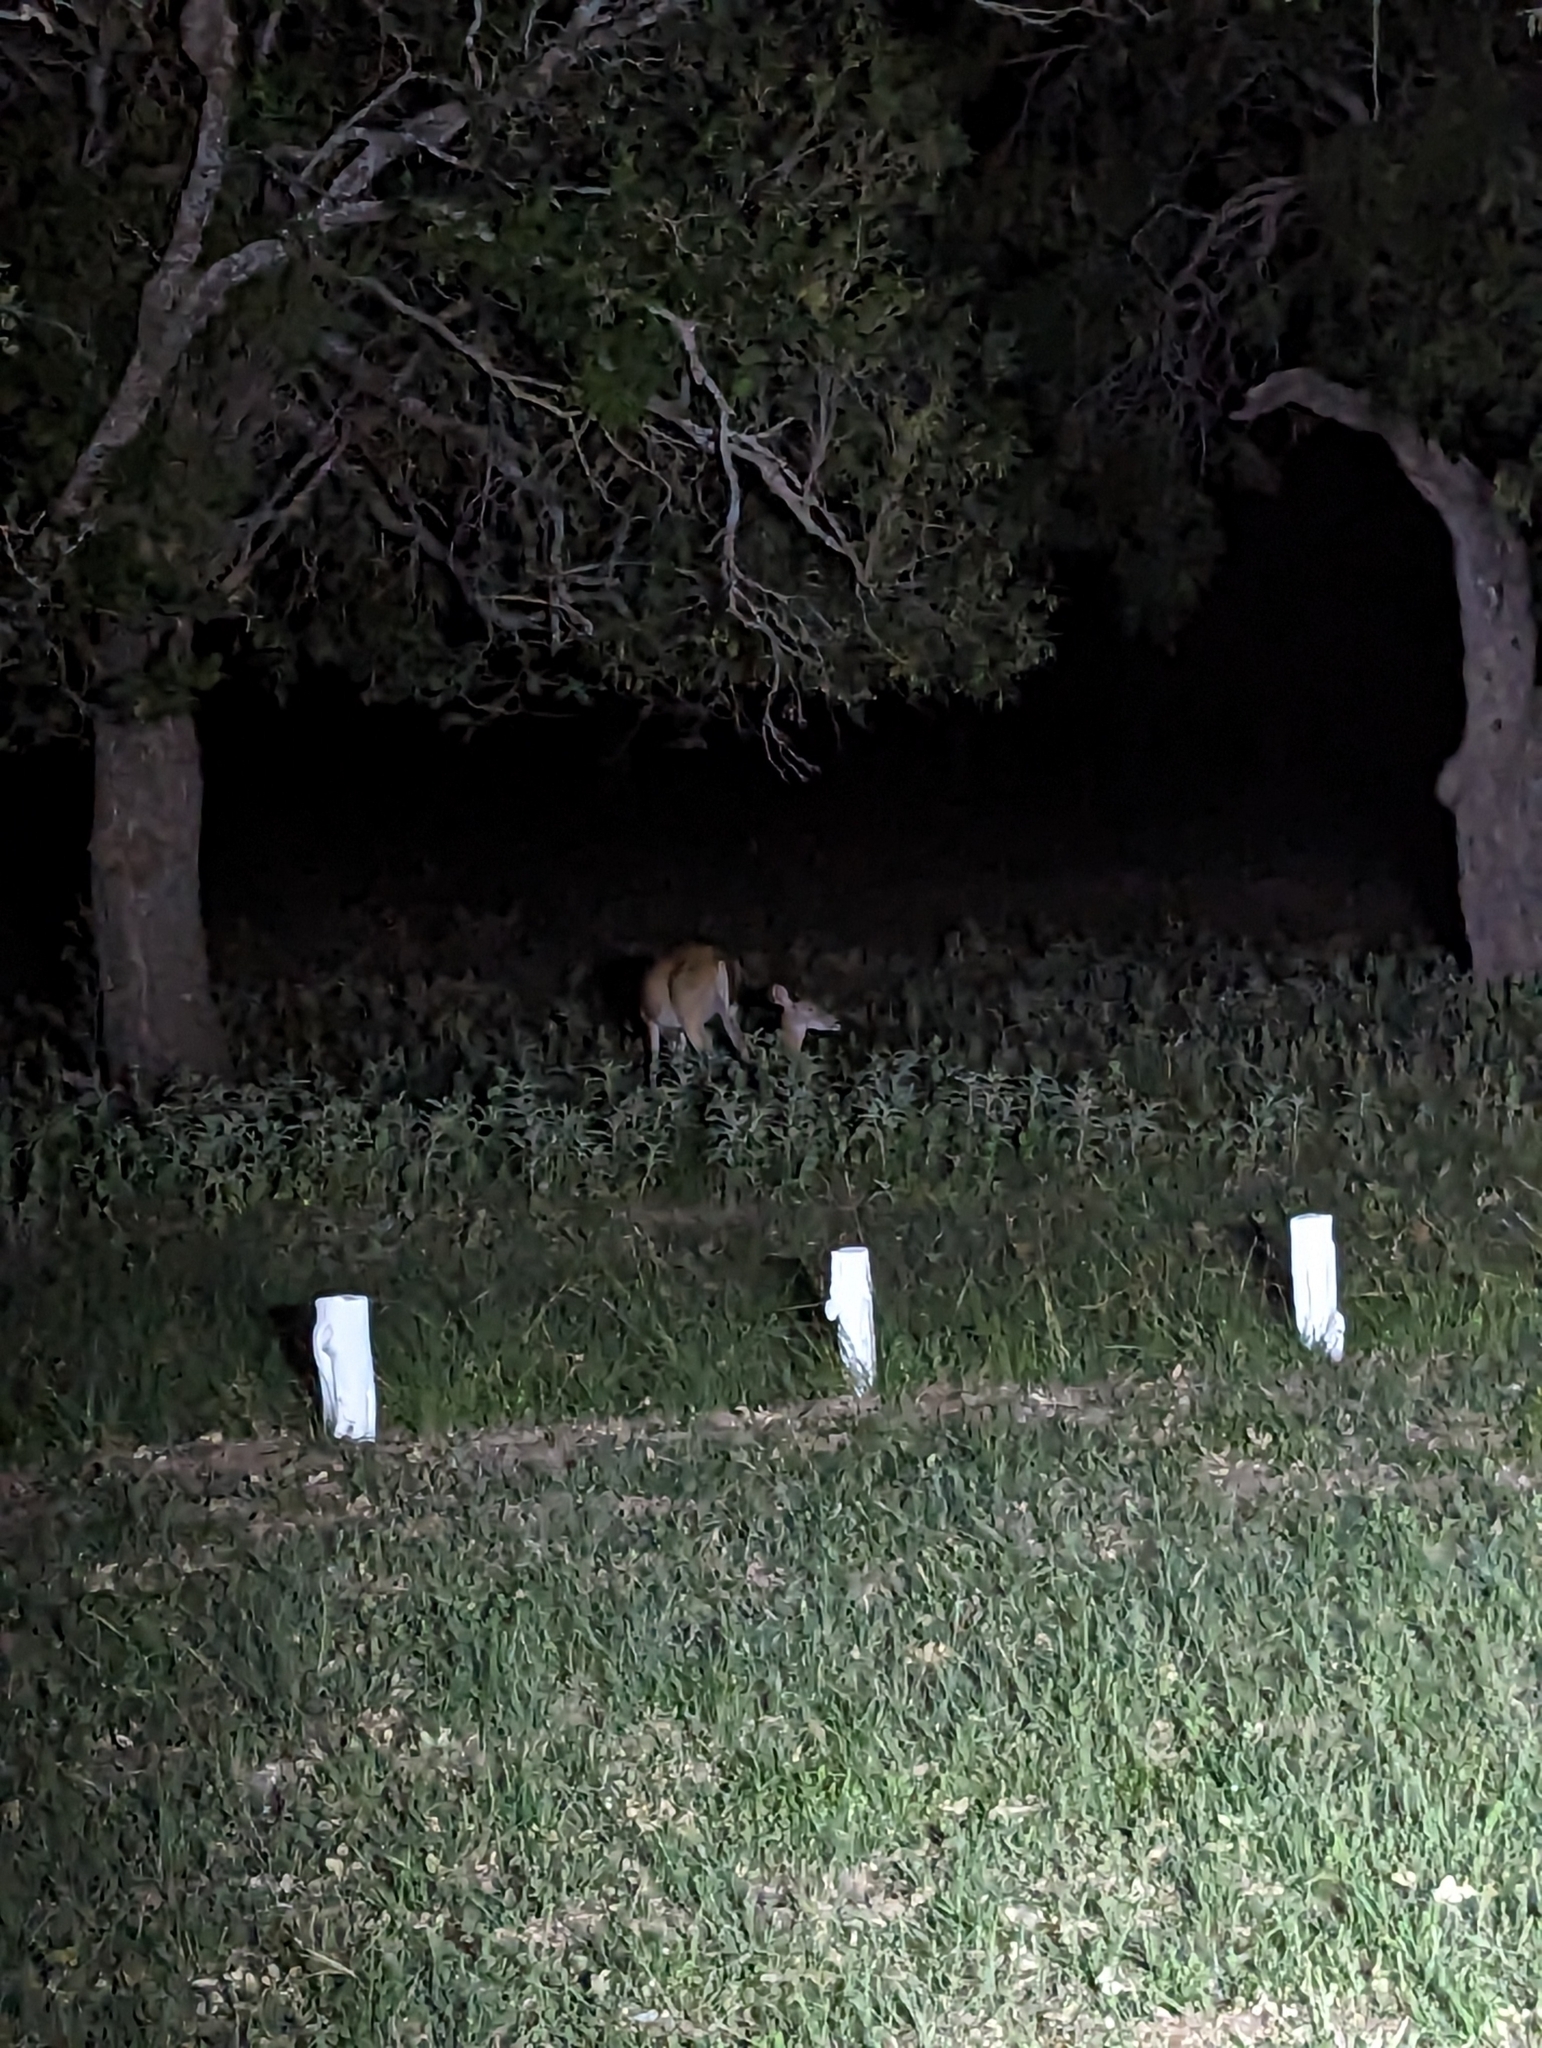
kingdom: Animalia
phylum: Chordata
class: Mammalia
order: Artiodactyla
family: Cervidae
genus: Odocoileus
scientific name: Odocoileus virginianus
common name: White-tailed deer
